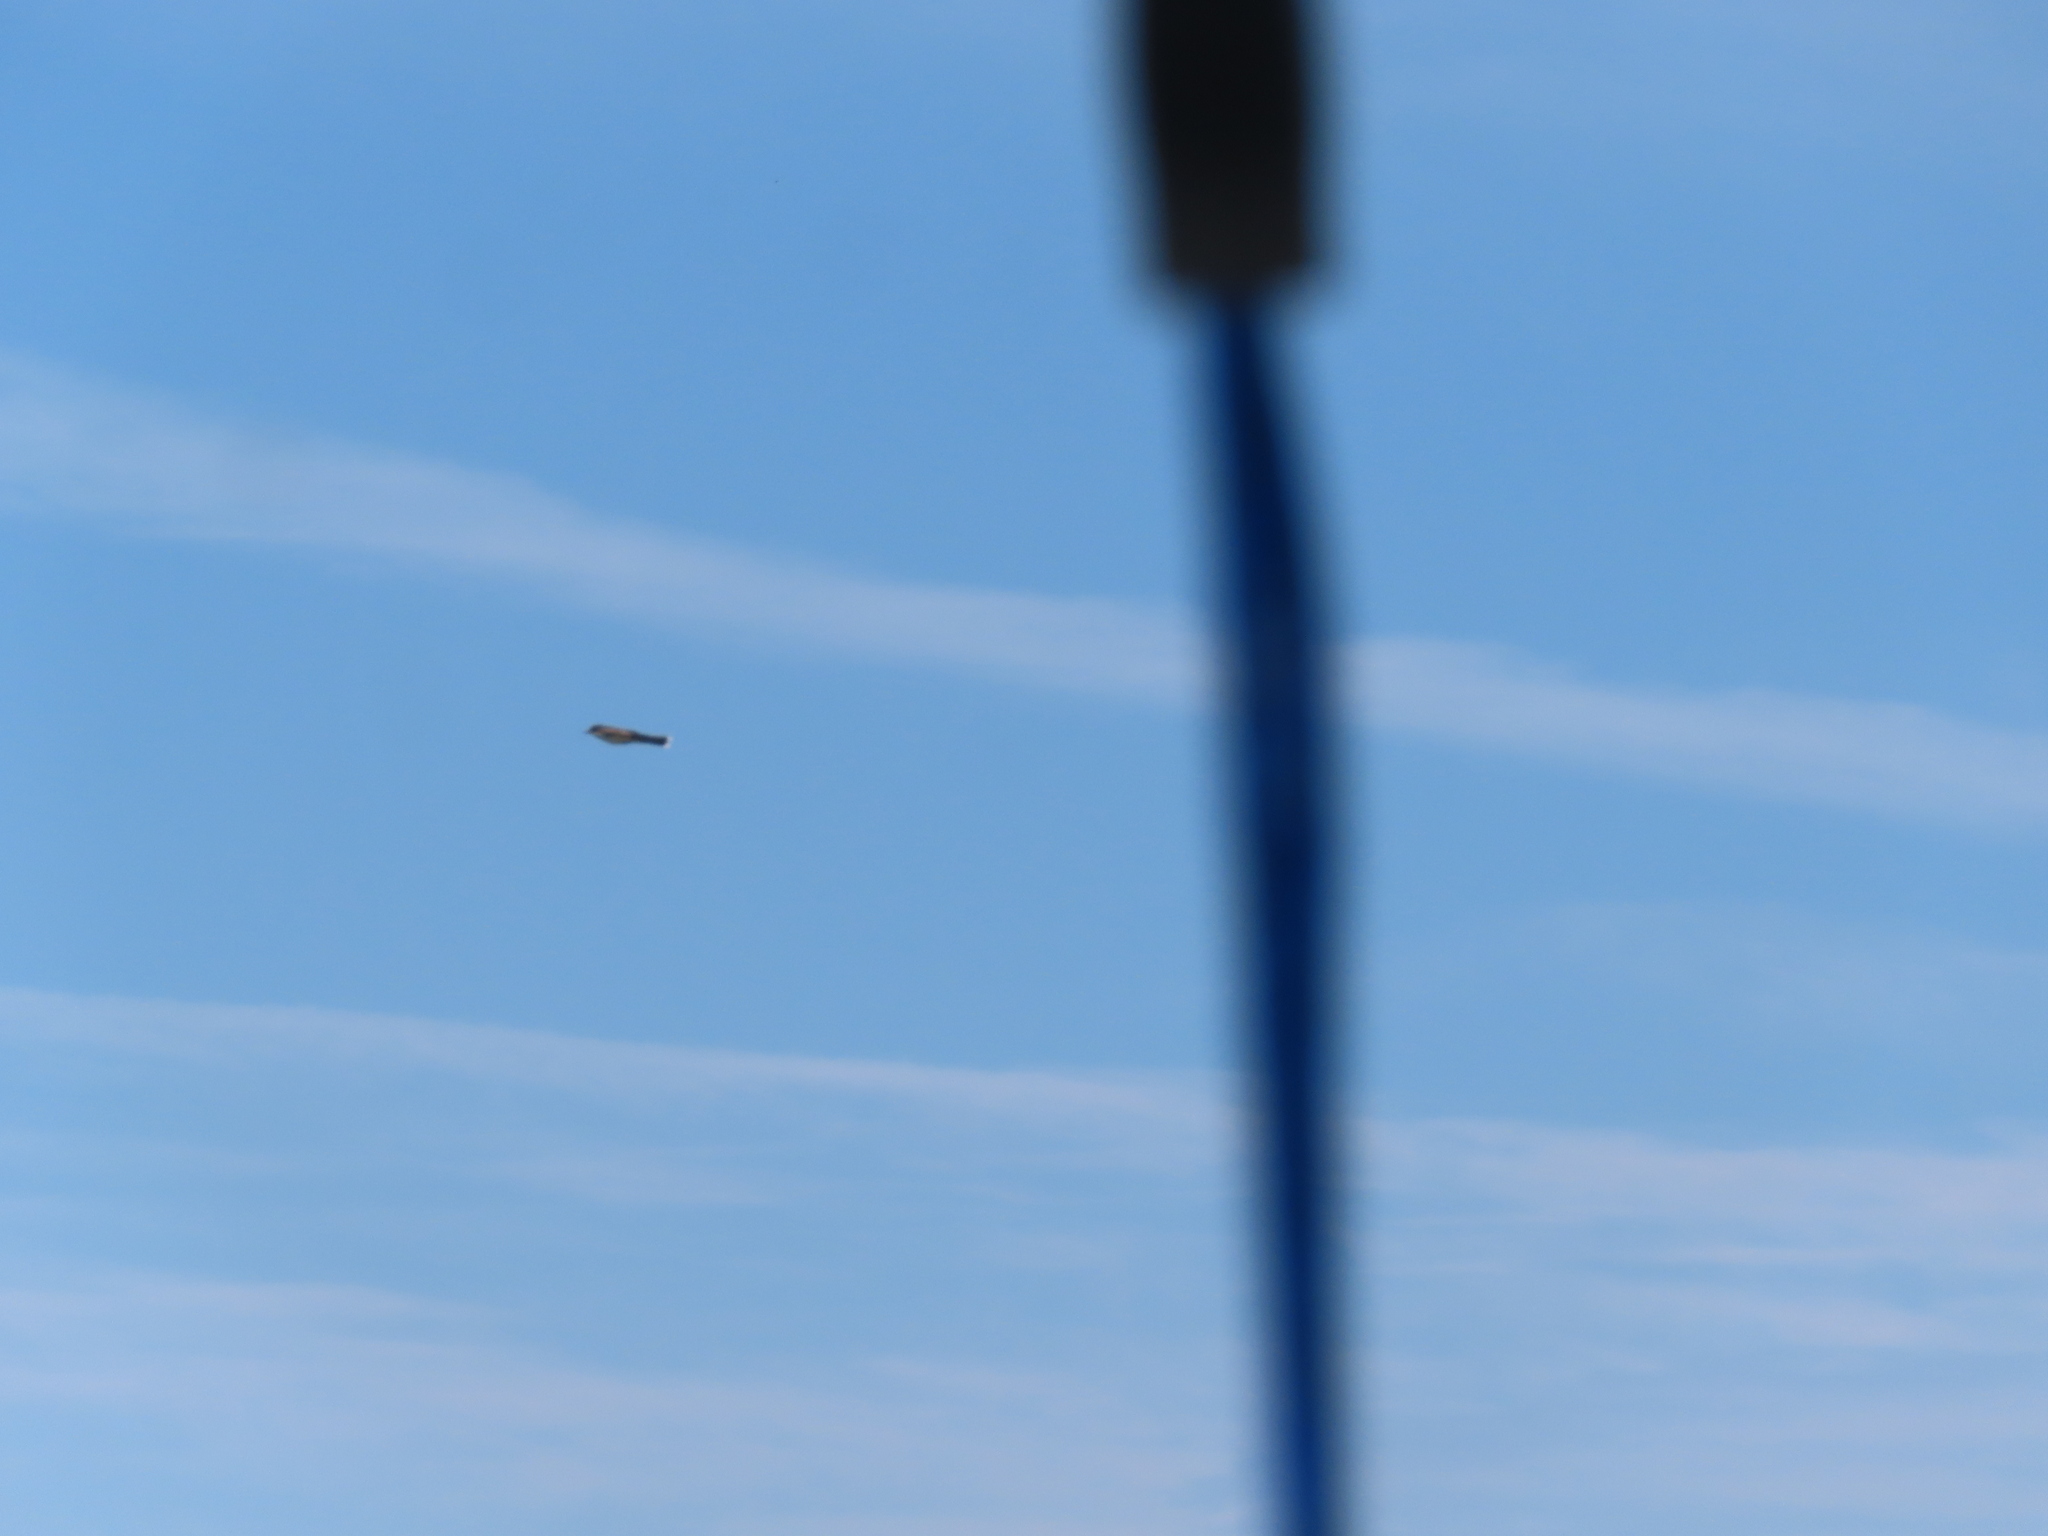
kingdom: Animalia
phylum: Chordata
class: Aves
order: Passeriformes
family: Tyrannidae
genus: Tyrannus
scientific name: Tyrannus tyrannus
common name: Eastern kingbird
